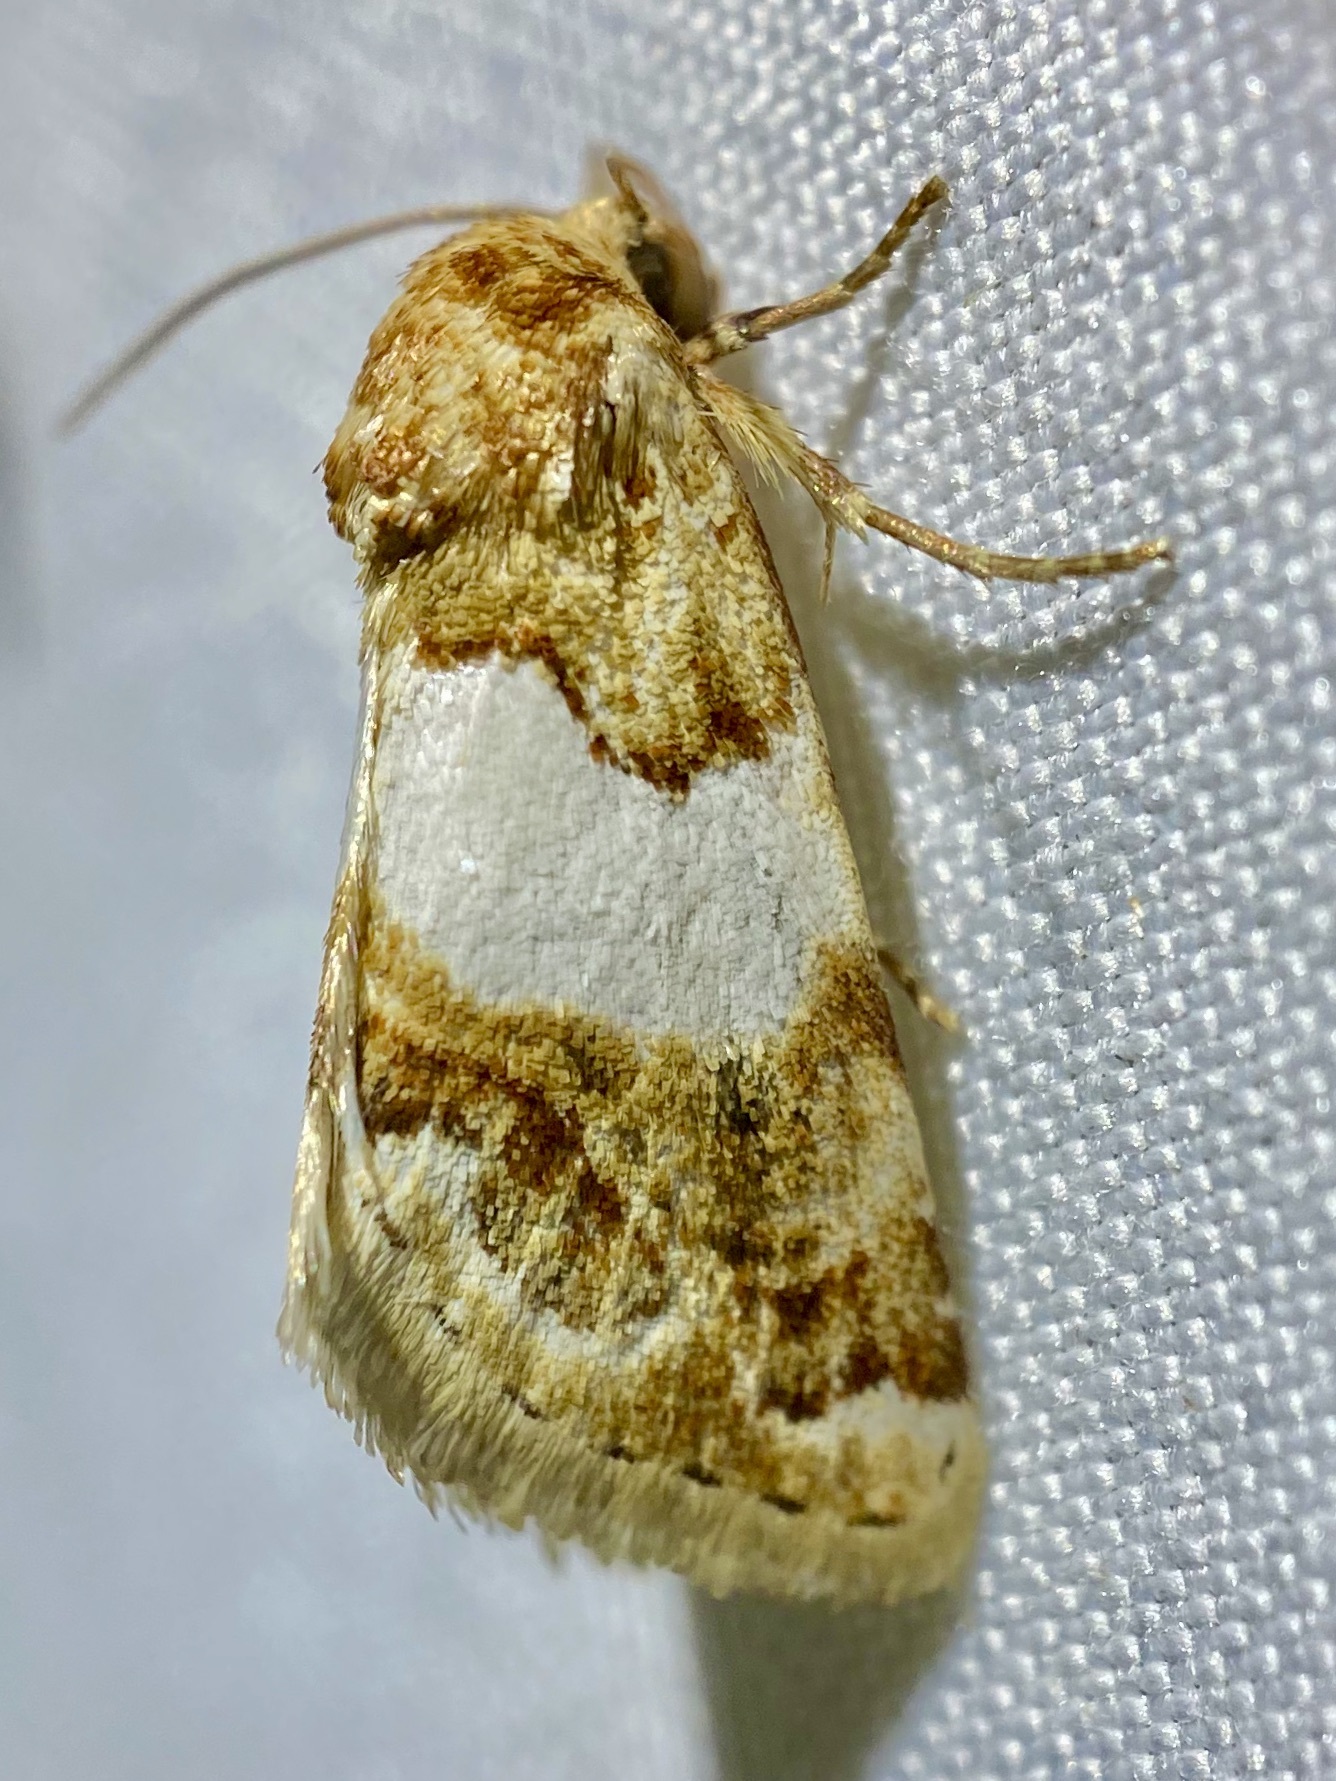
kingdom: Animalia
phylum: Arthropoda
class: Insecta
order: Lepidoptera
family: Noctuidae
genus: Schinia
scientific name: Schinia argentifascia
